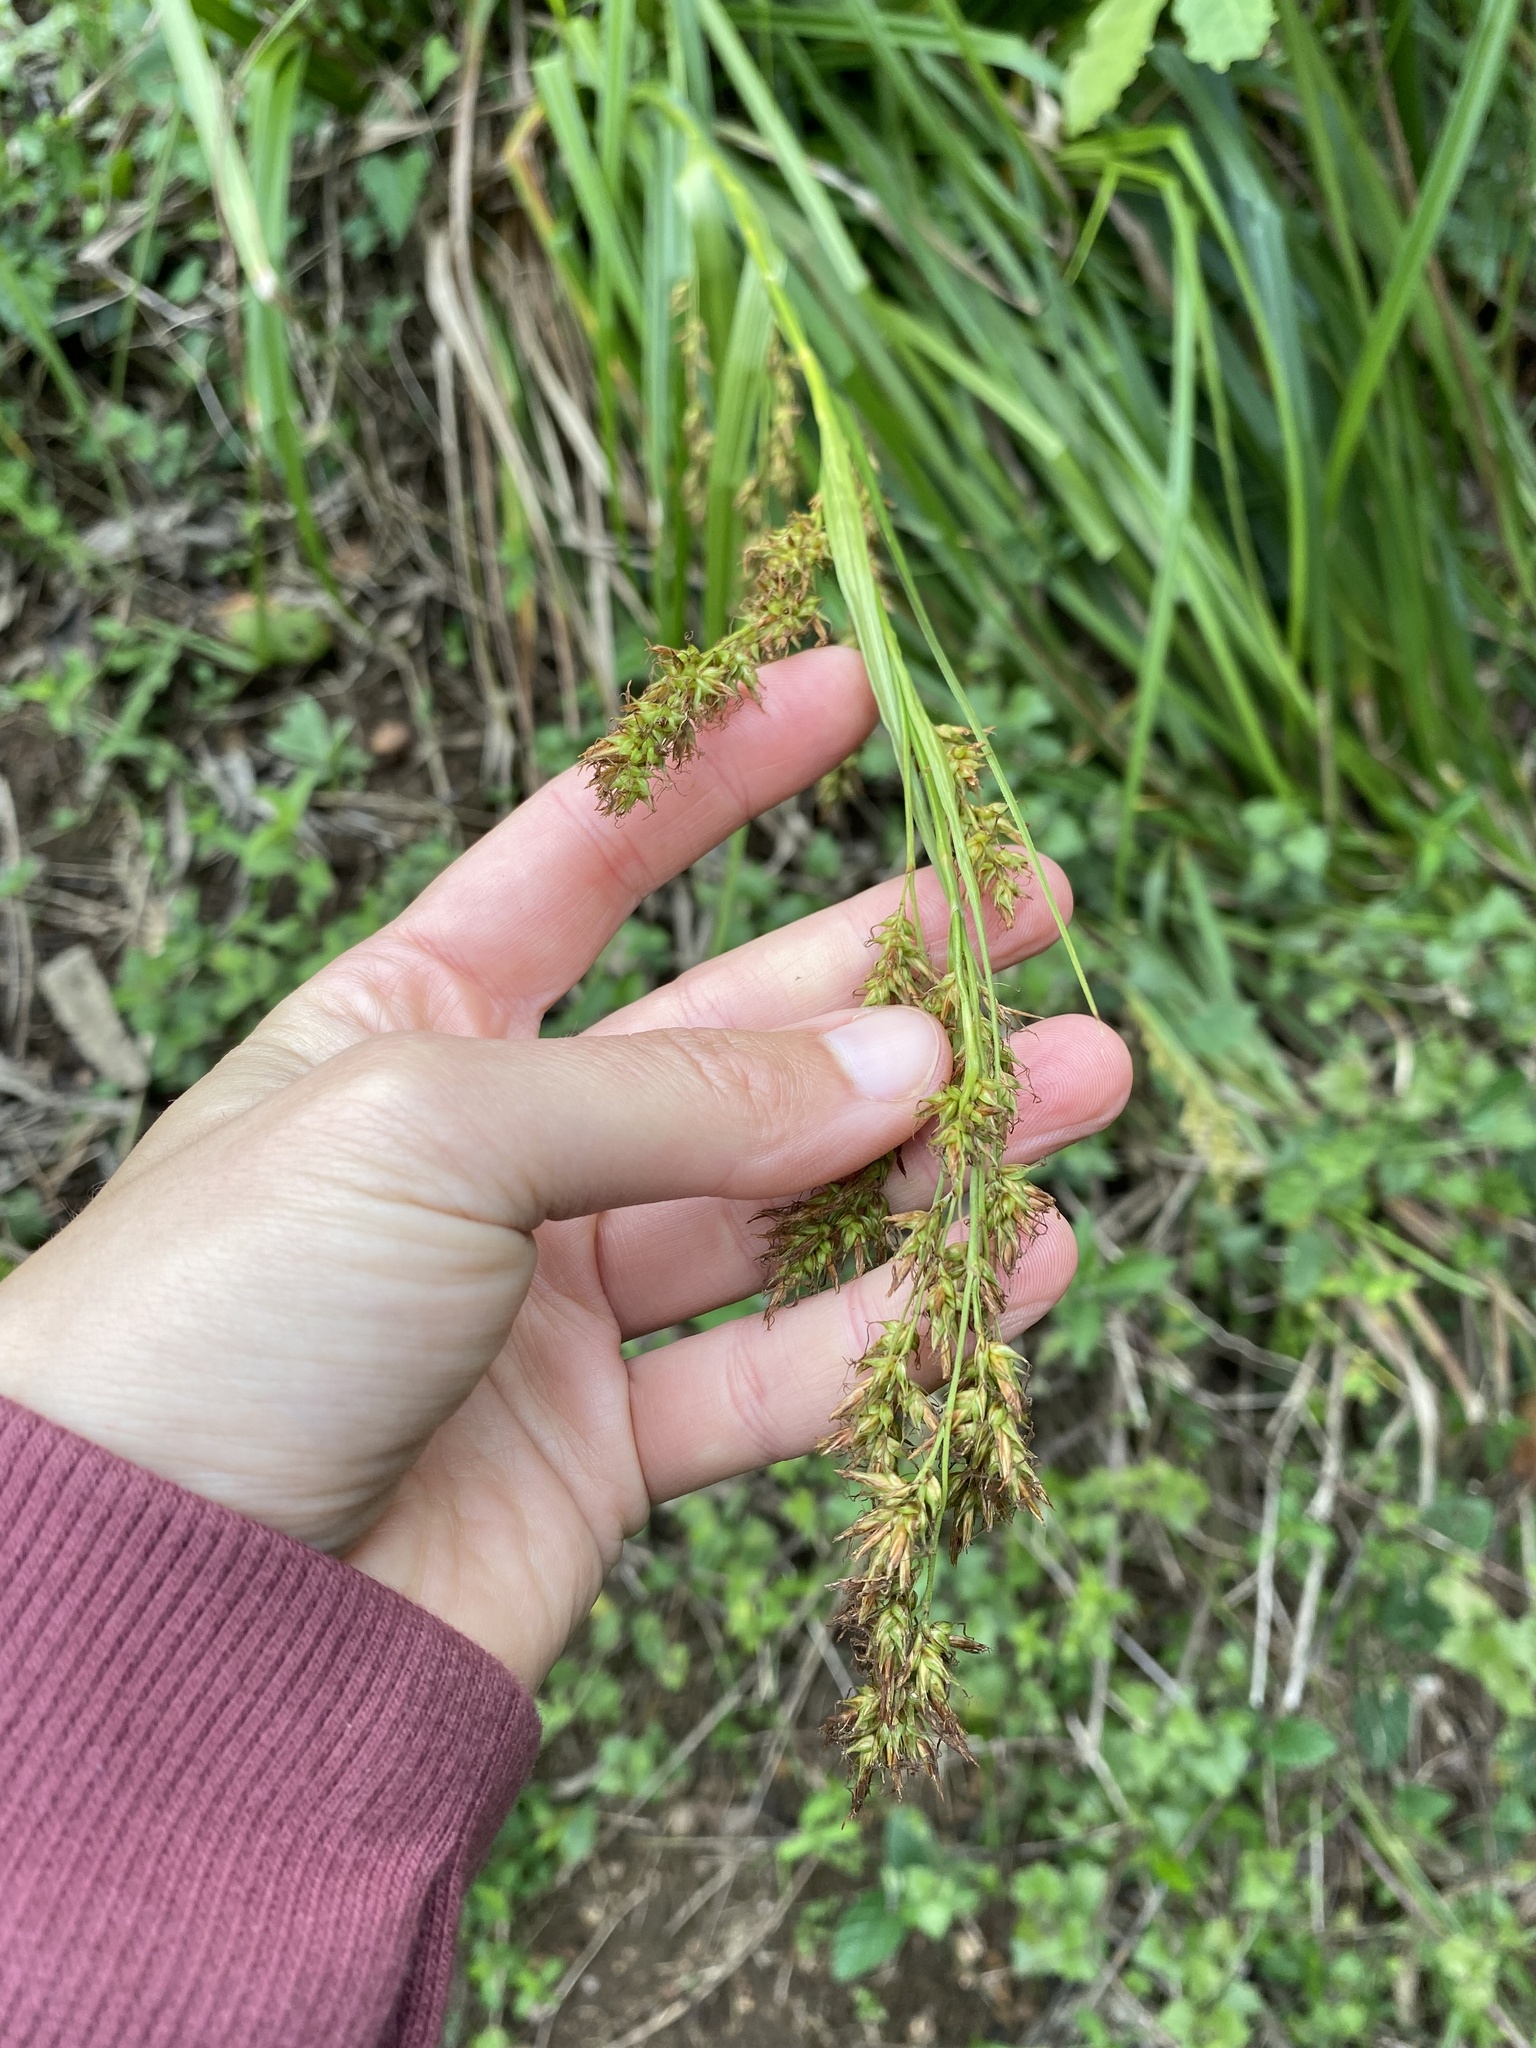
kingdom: Plantae
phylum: Tracheophyta
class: Liliopsida
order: Poales
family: Cyperaceae
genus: Carex
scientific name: Carex steudneri
